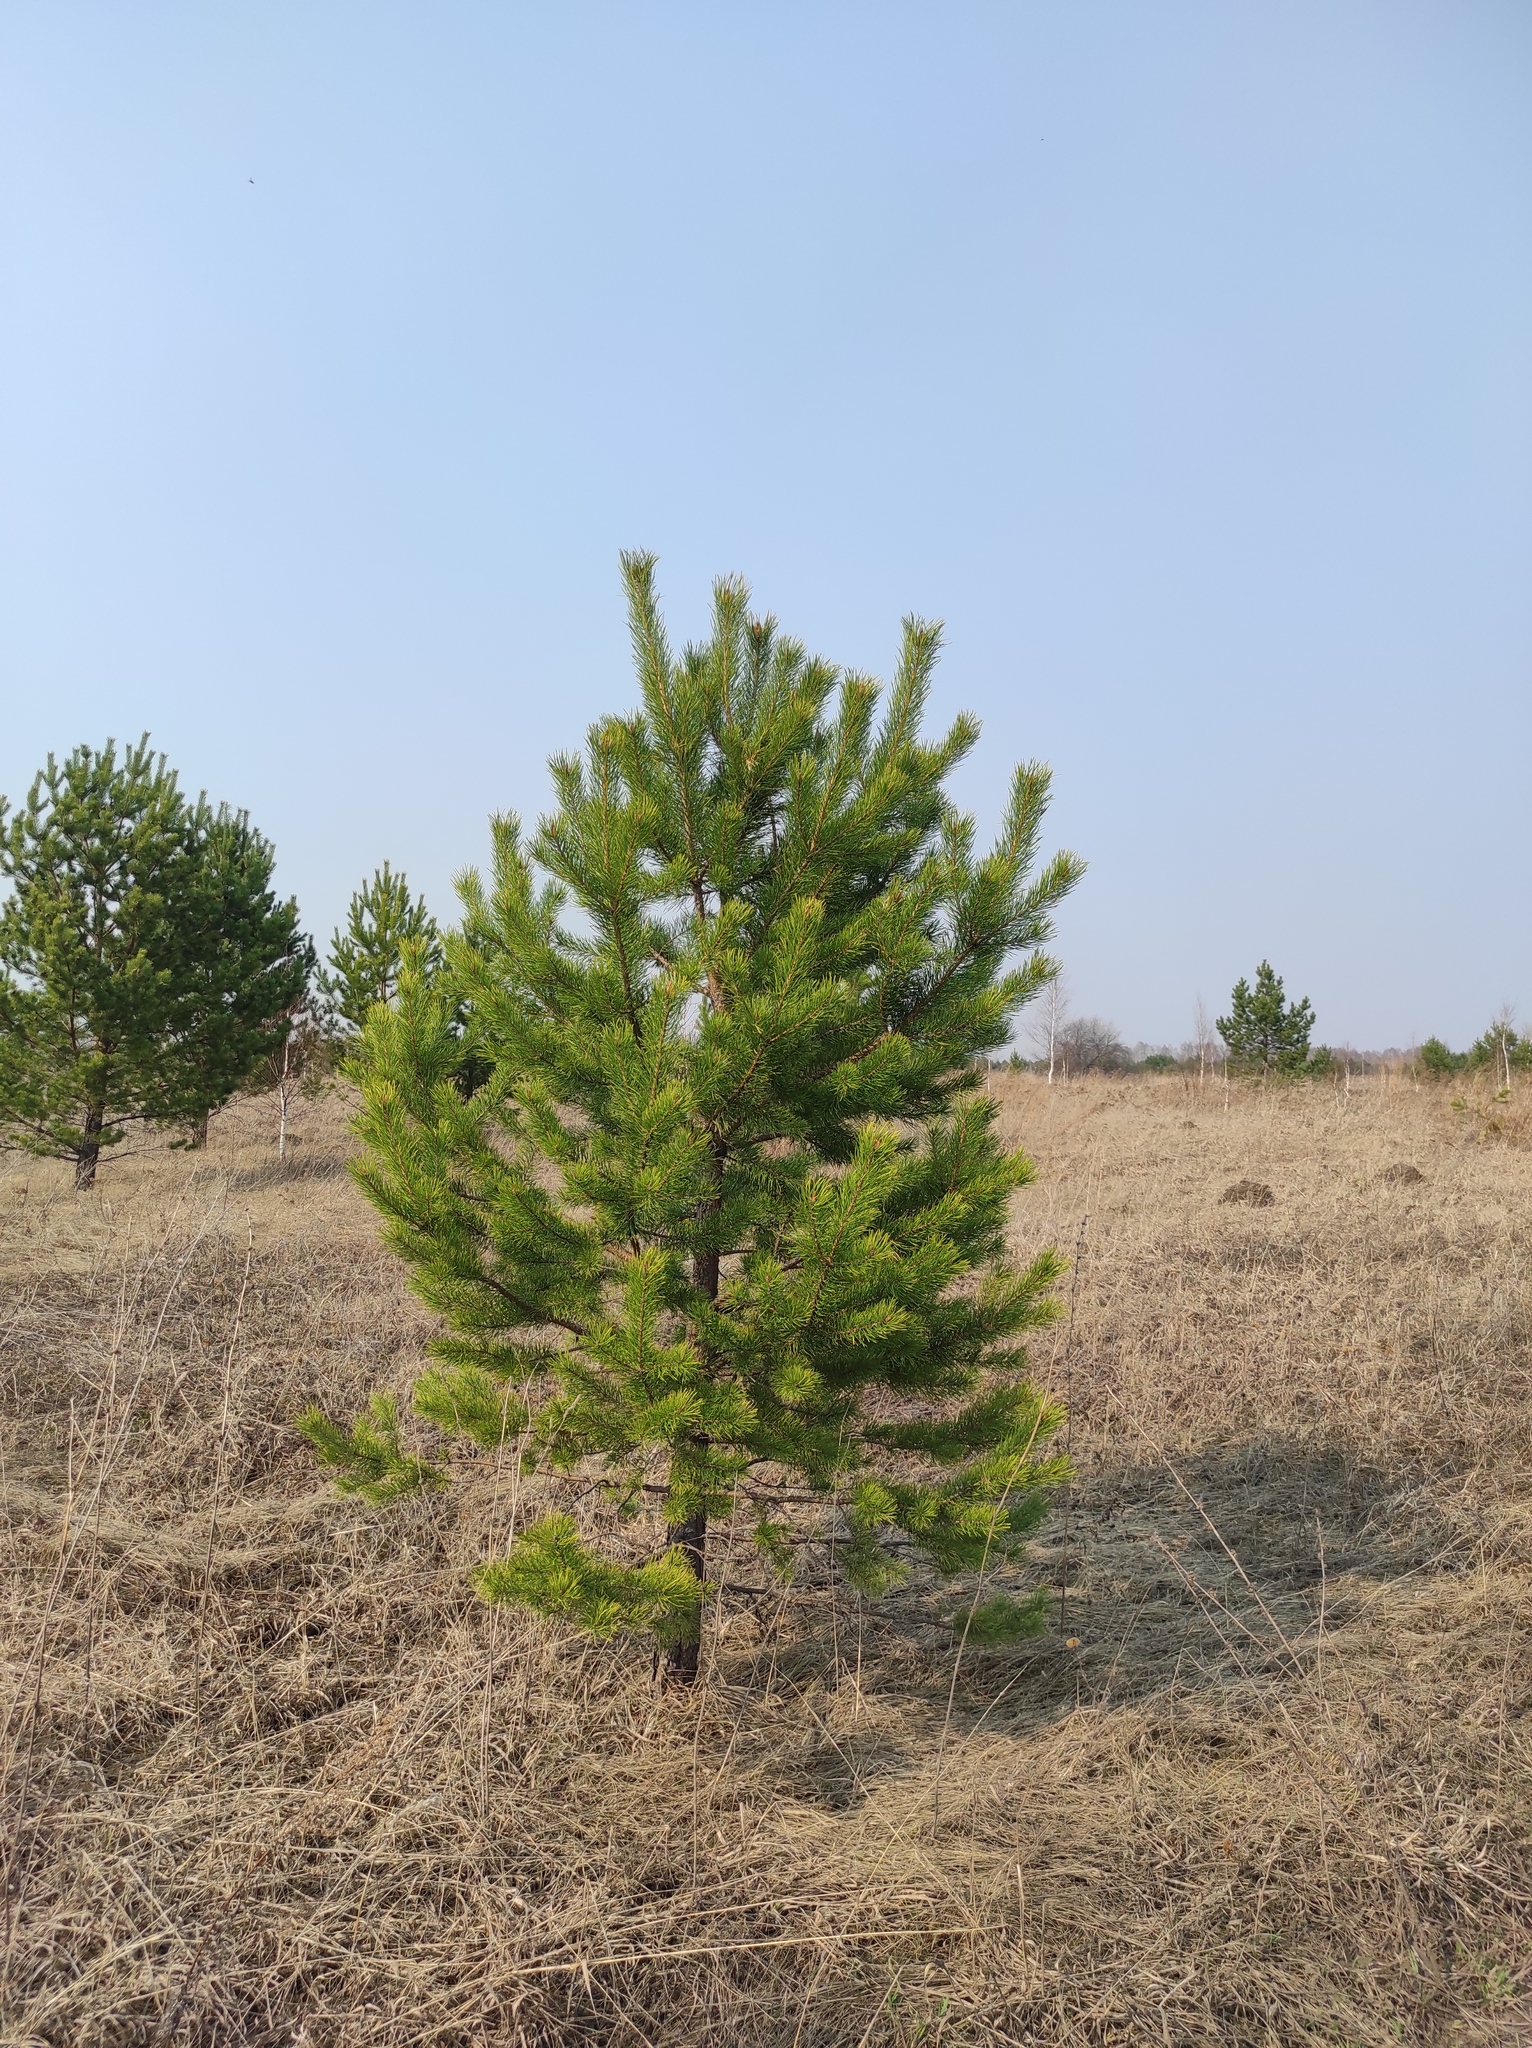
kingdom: Plantae
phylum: Tracheophyta
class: Pinopsida
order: Pinales
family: Pinaceae
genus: Pinus
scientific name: Pinus sylvestris
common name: Scots pine
